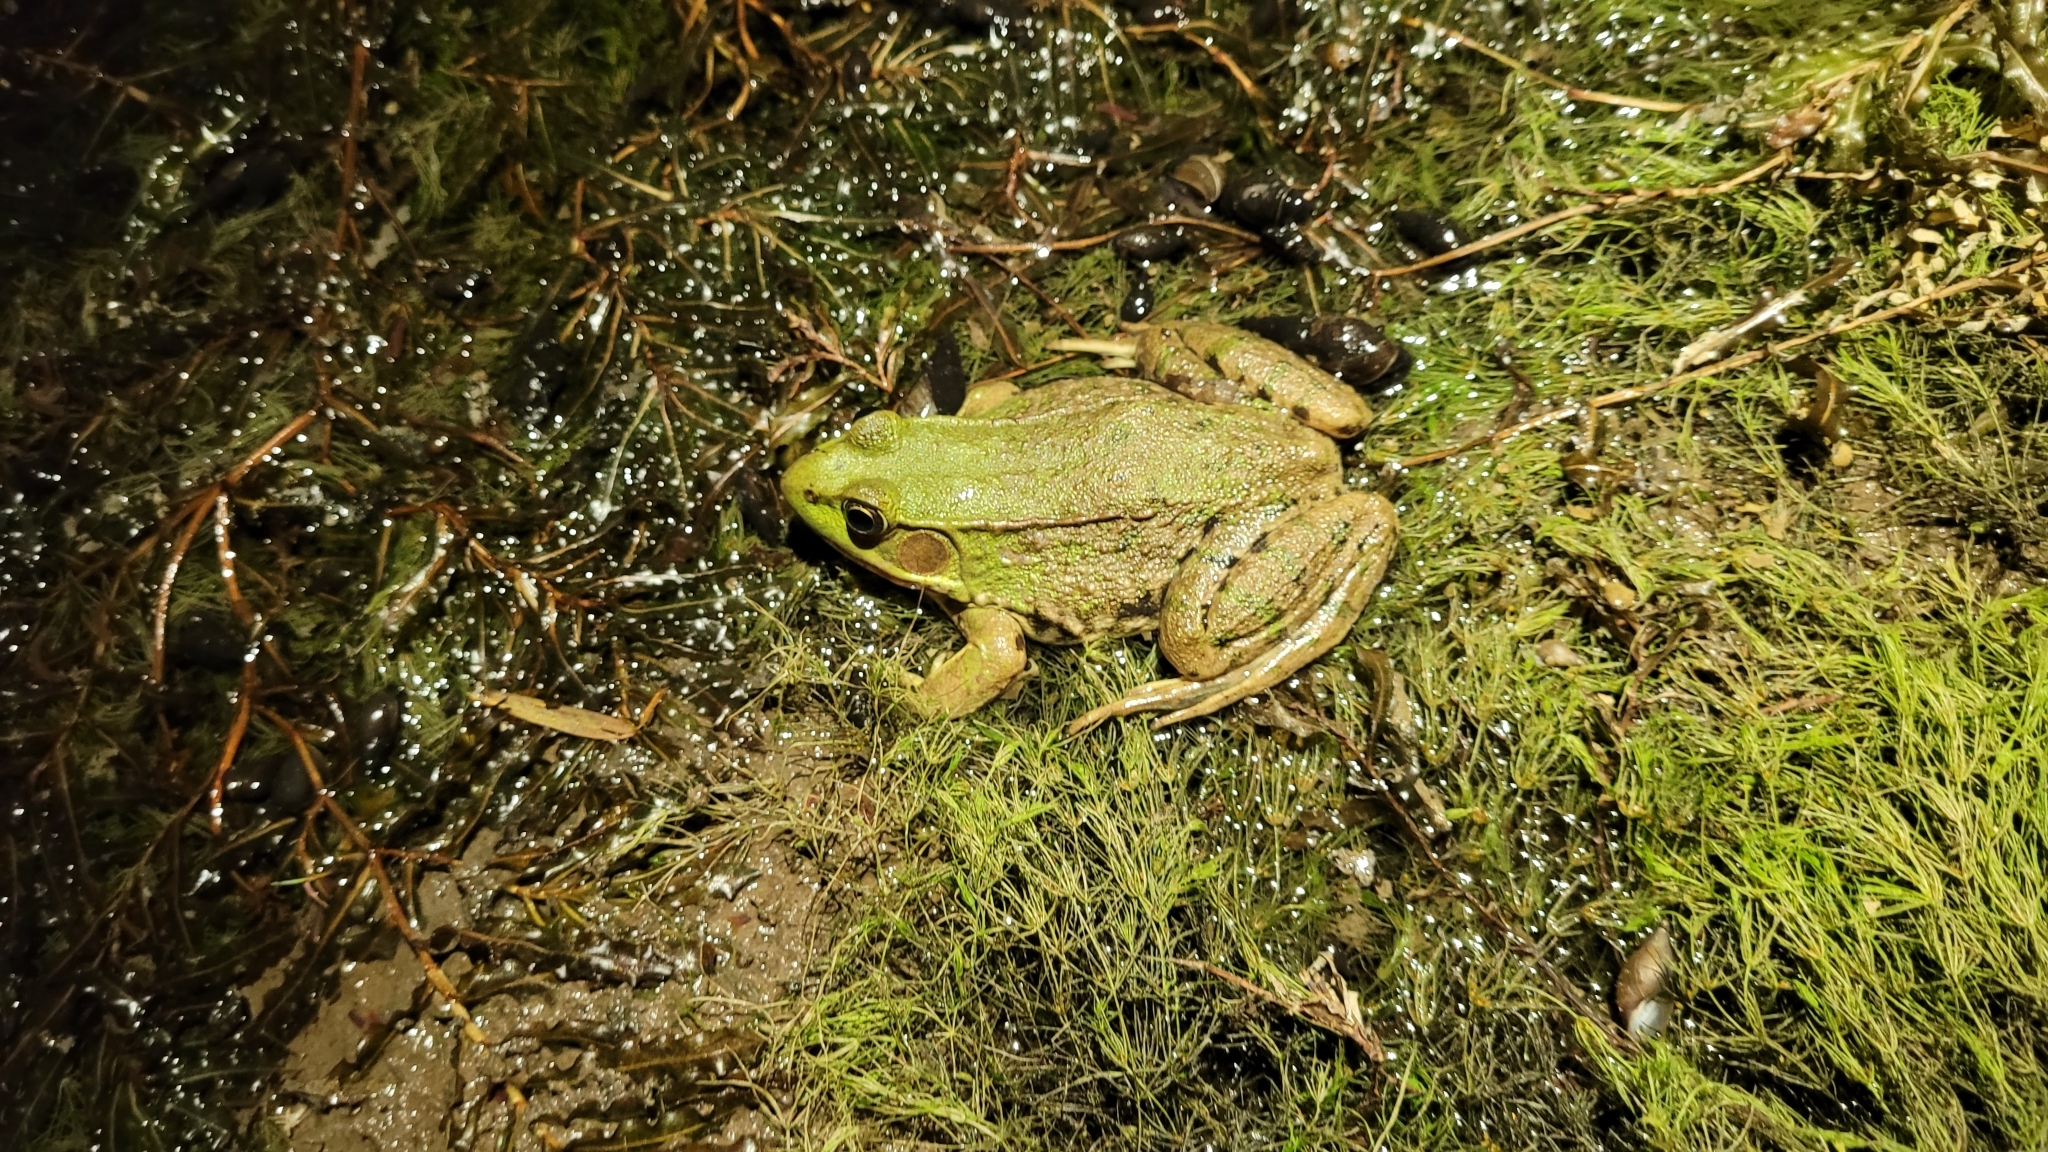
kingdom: Animalia
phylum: Chordata
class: Amphibia
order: Anura
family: Ranidae
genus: Lithobates
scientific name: Lithobates clamitans
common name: Green frog
